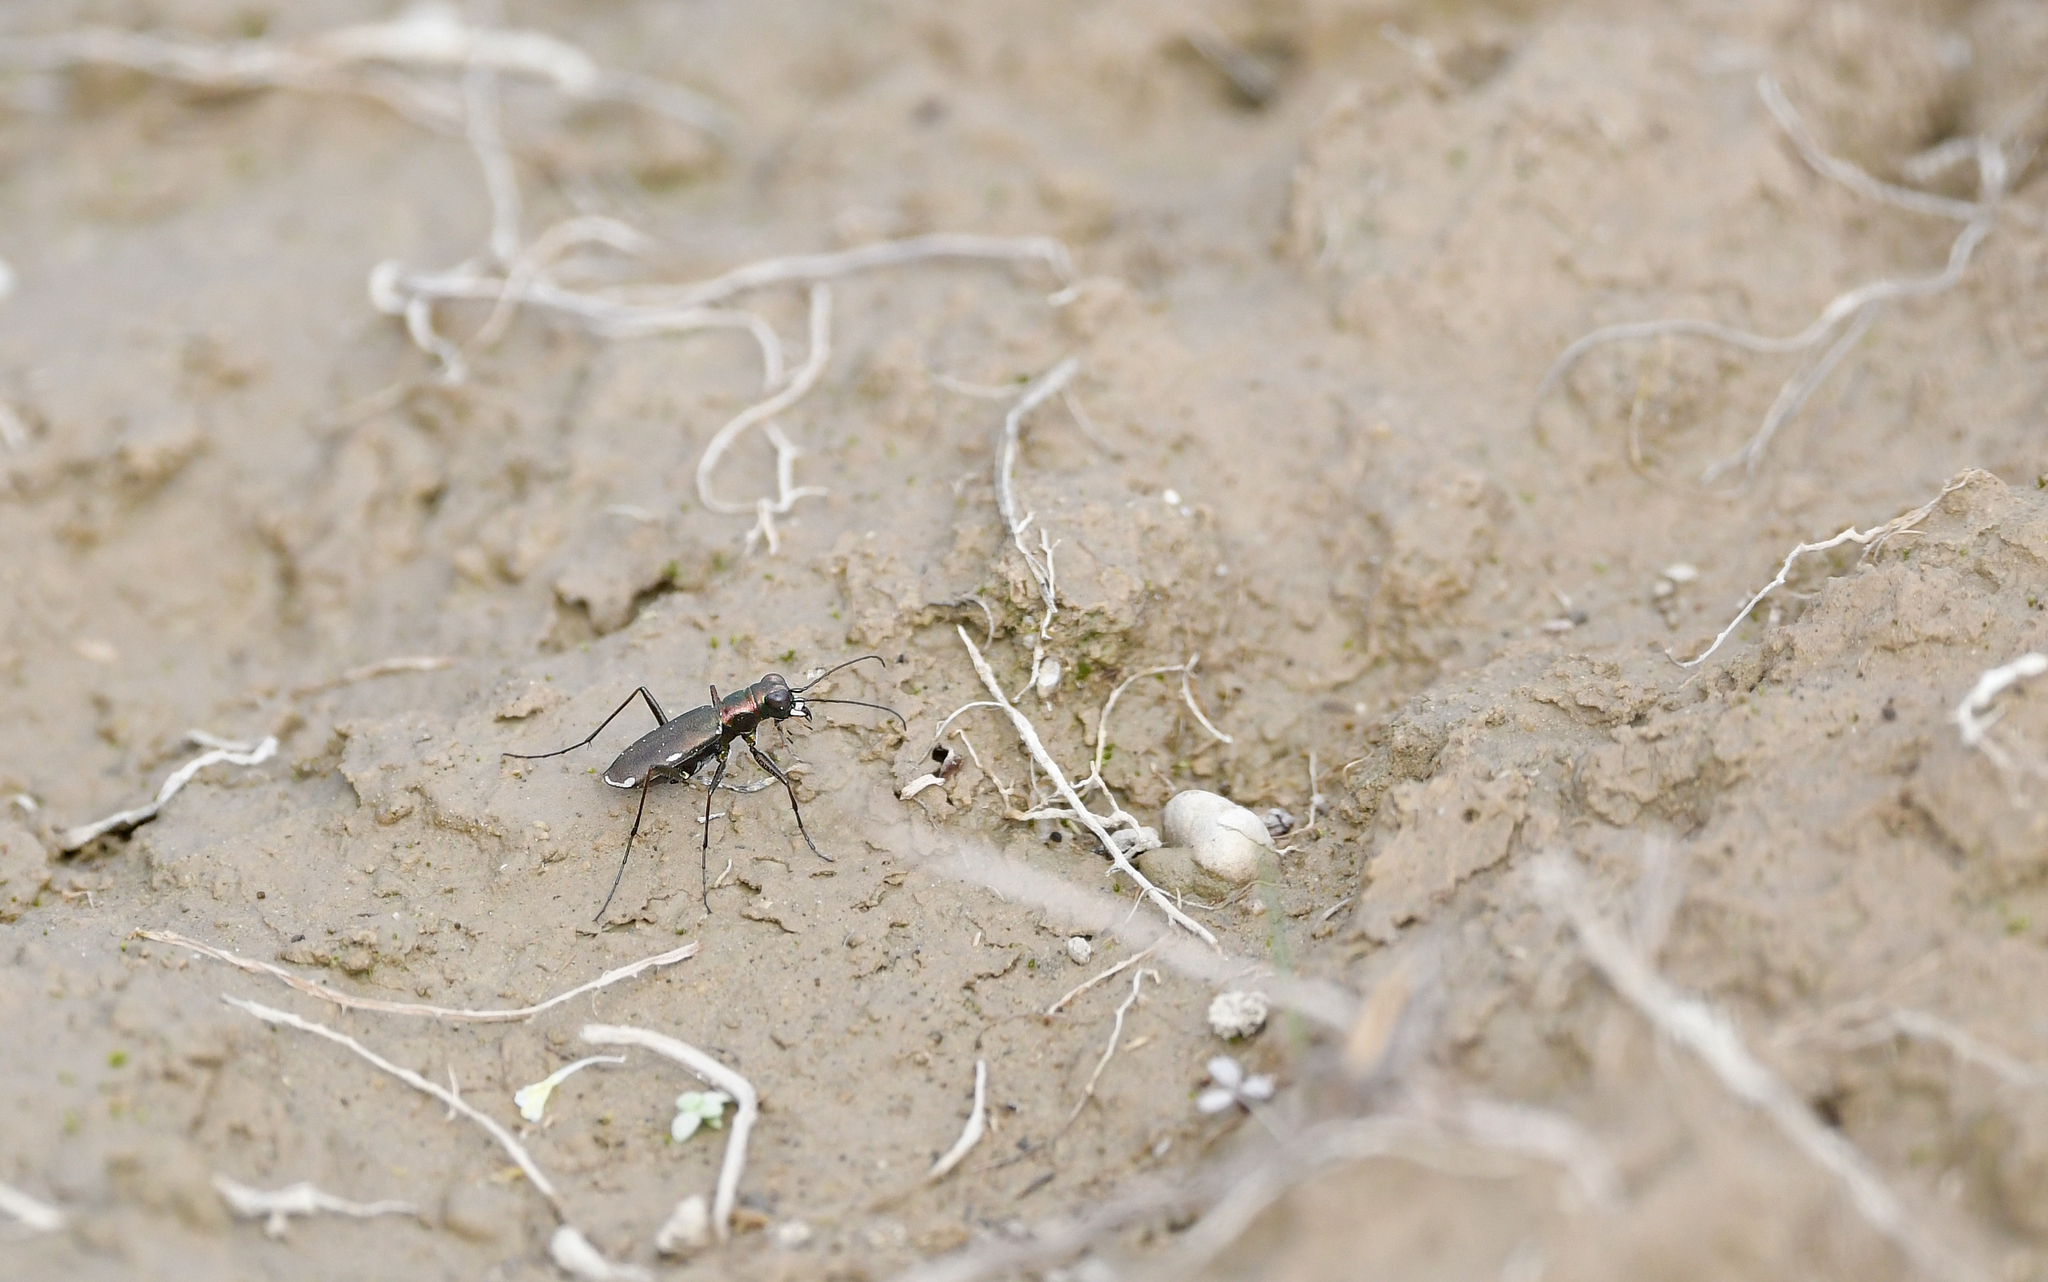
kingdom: Animalia
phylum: Arthropoda
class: Insecta
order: Coleoptera
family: Carabidae
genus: Cylindera
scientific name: Cylindera germanica
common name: Cliff tiger beetle
